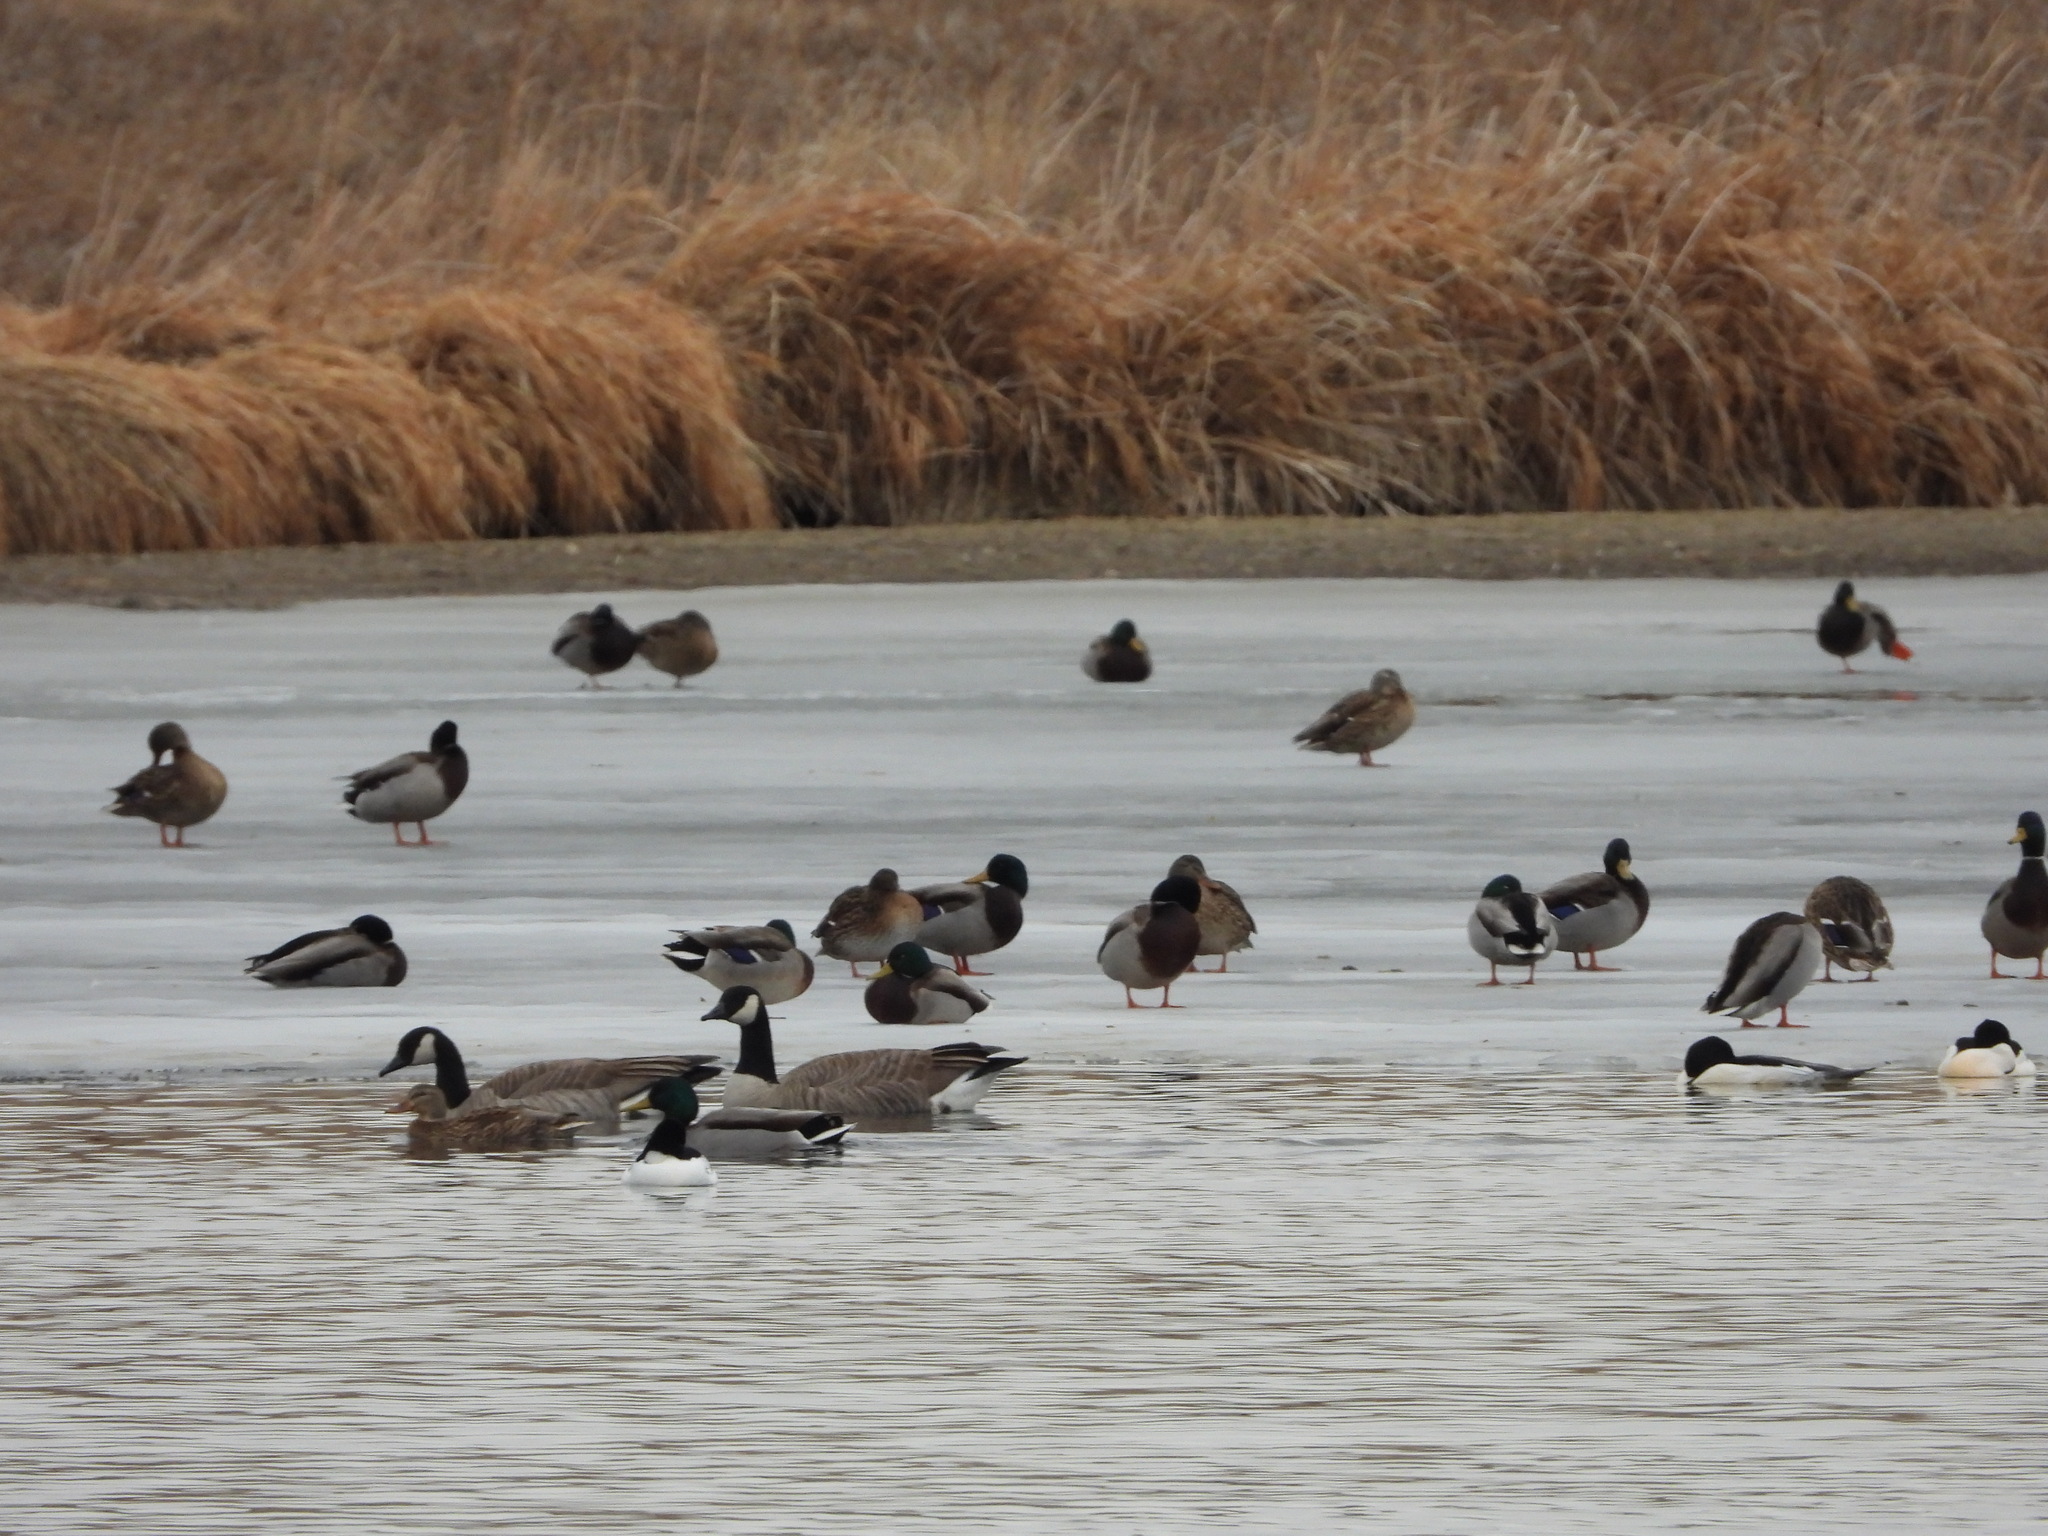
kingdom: Animalia
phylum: Chordata
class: Aves
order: Anseriformes
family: Anatidae
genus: Anas
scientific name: Anas platyrhynchos
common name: Mallard
